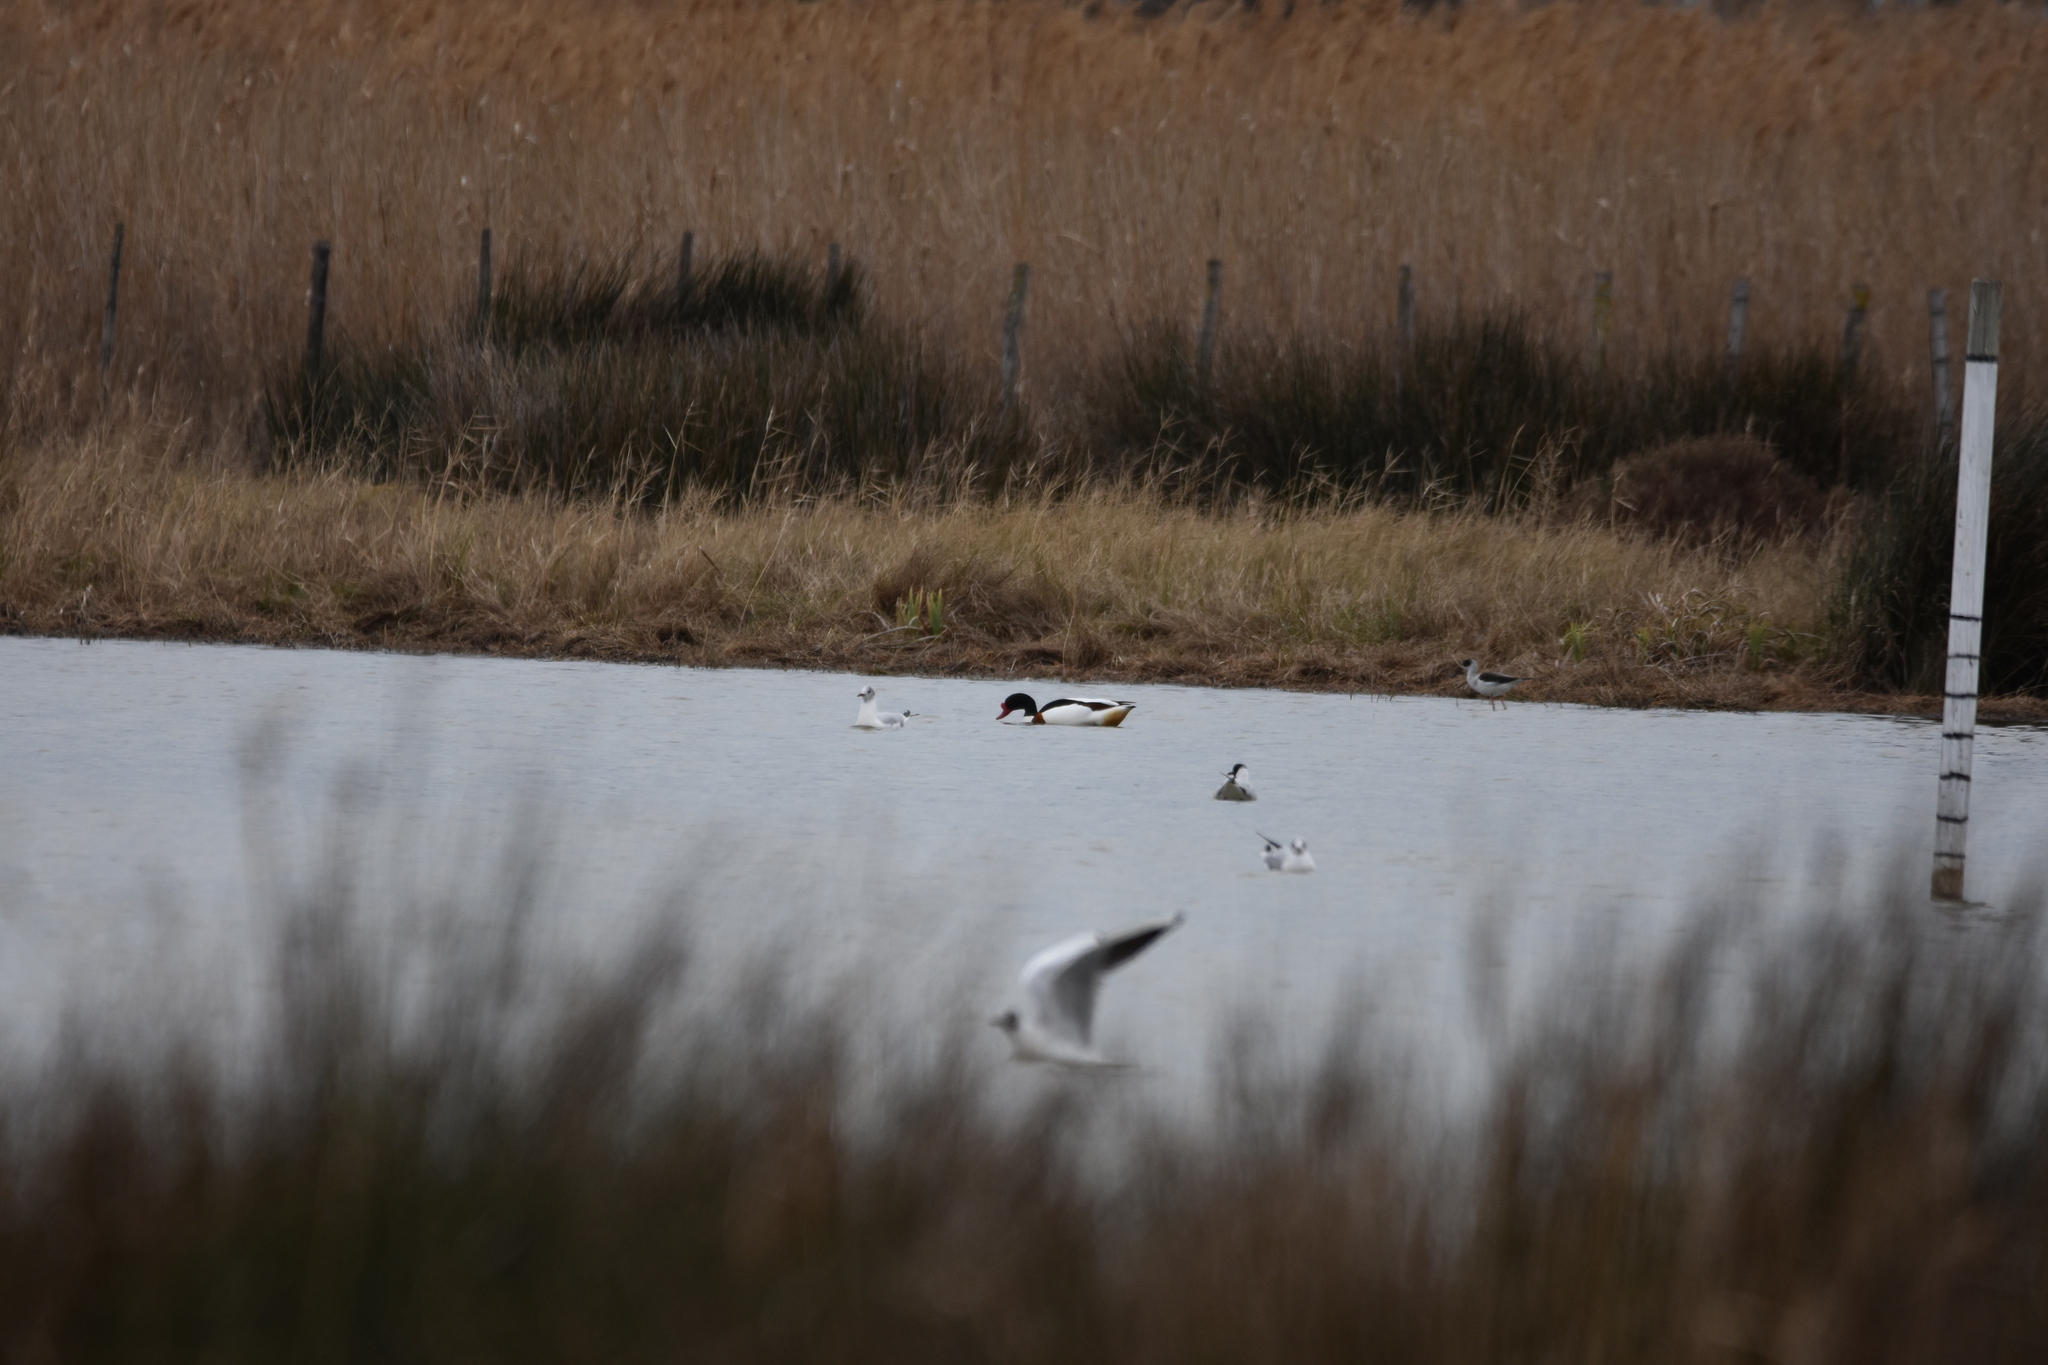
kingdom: Animalia
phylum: Chordata
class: Aves
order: Anseriformes
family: Anatidae
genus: Tadorna
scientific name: Tadorna tadorna
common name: Common shelduck
